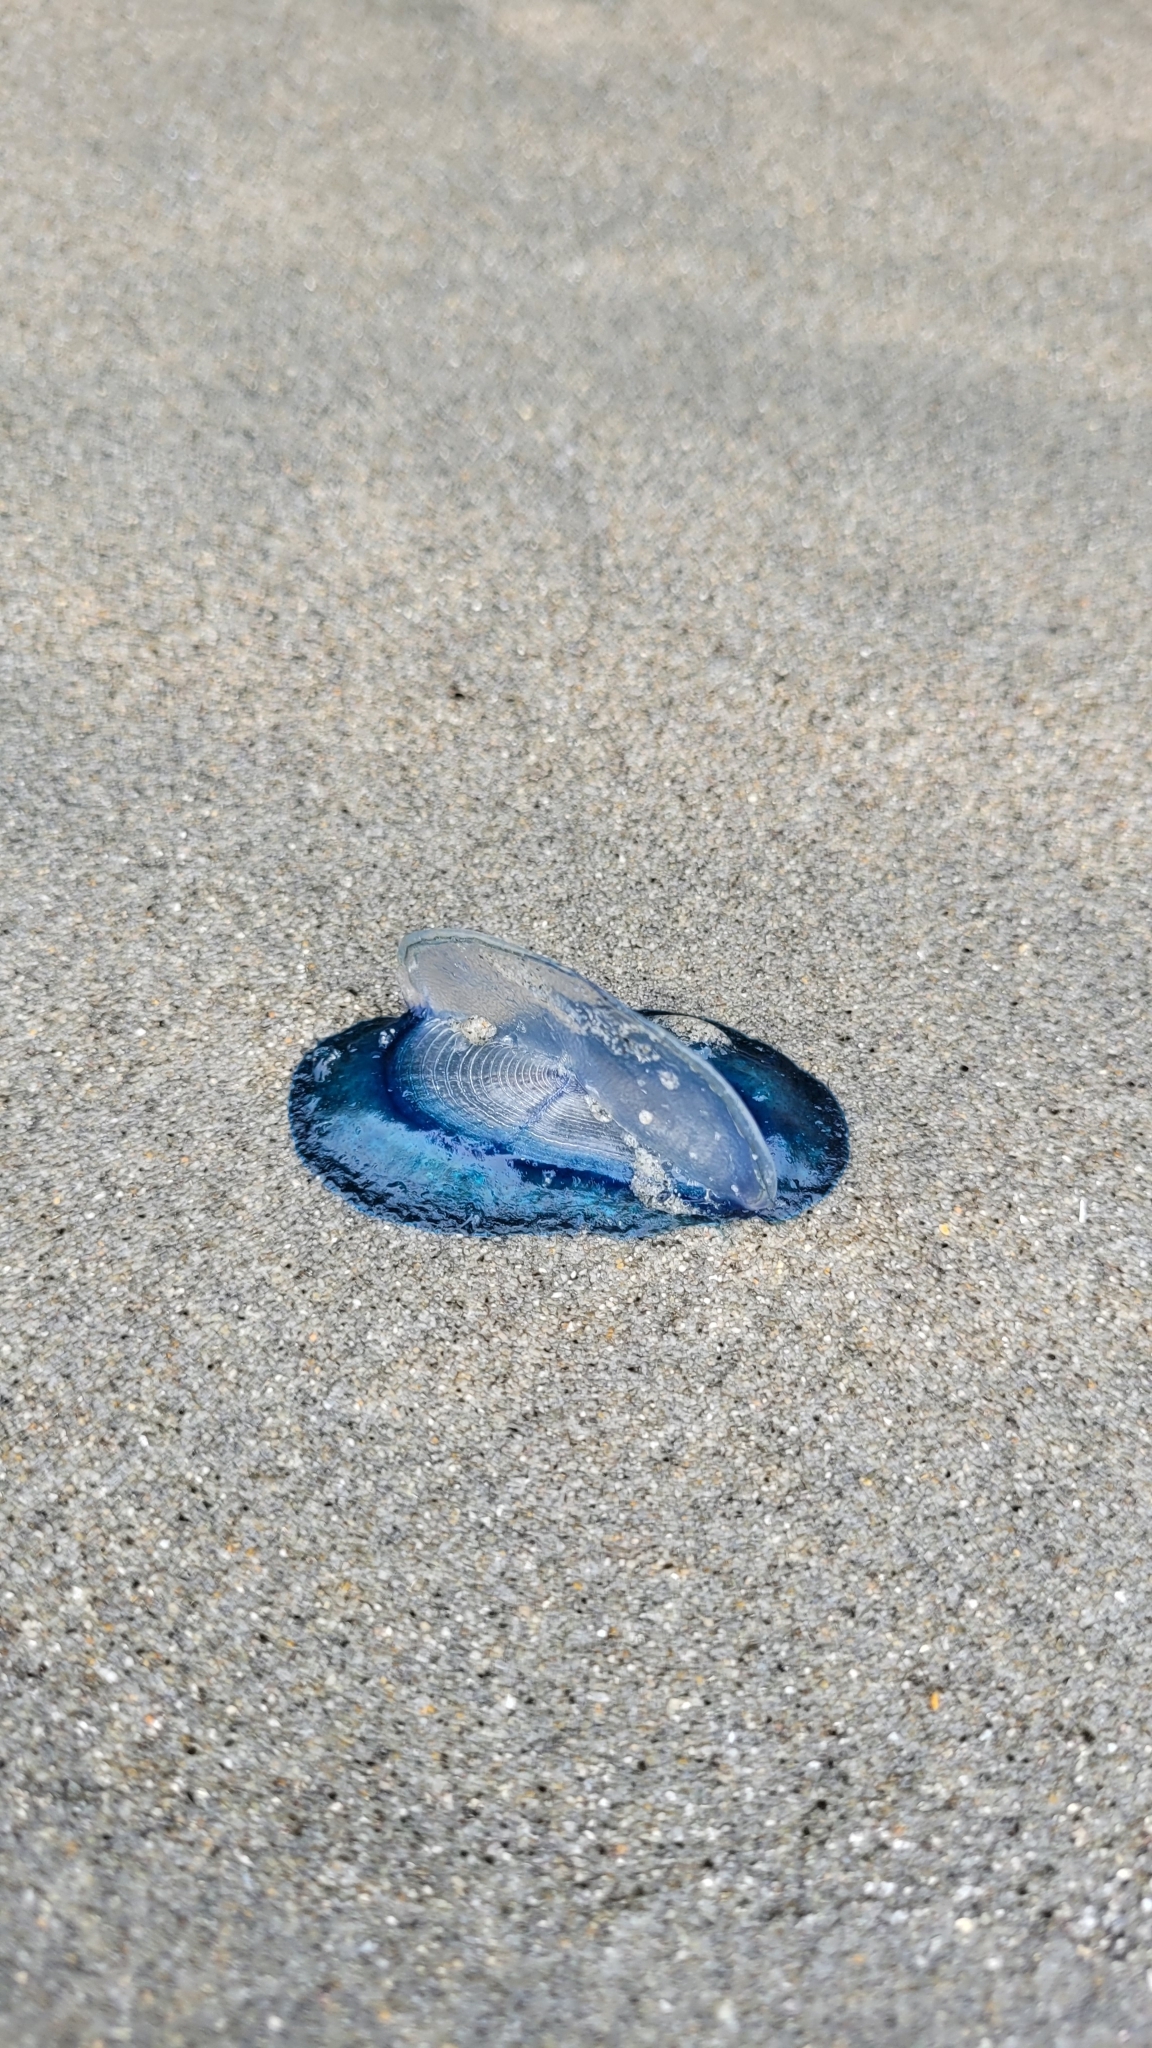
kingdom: Animalia
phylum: Cnidaria
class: Hydrozoa
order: Anthoathecata
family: Porpitidae
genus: Velella
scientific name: Velella velella
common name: By-the-wind-sailor
